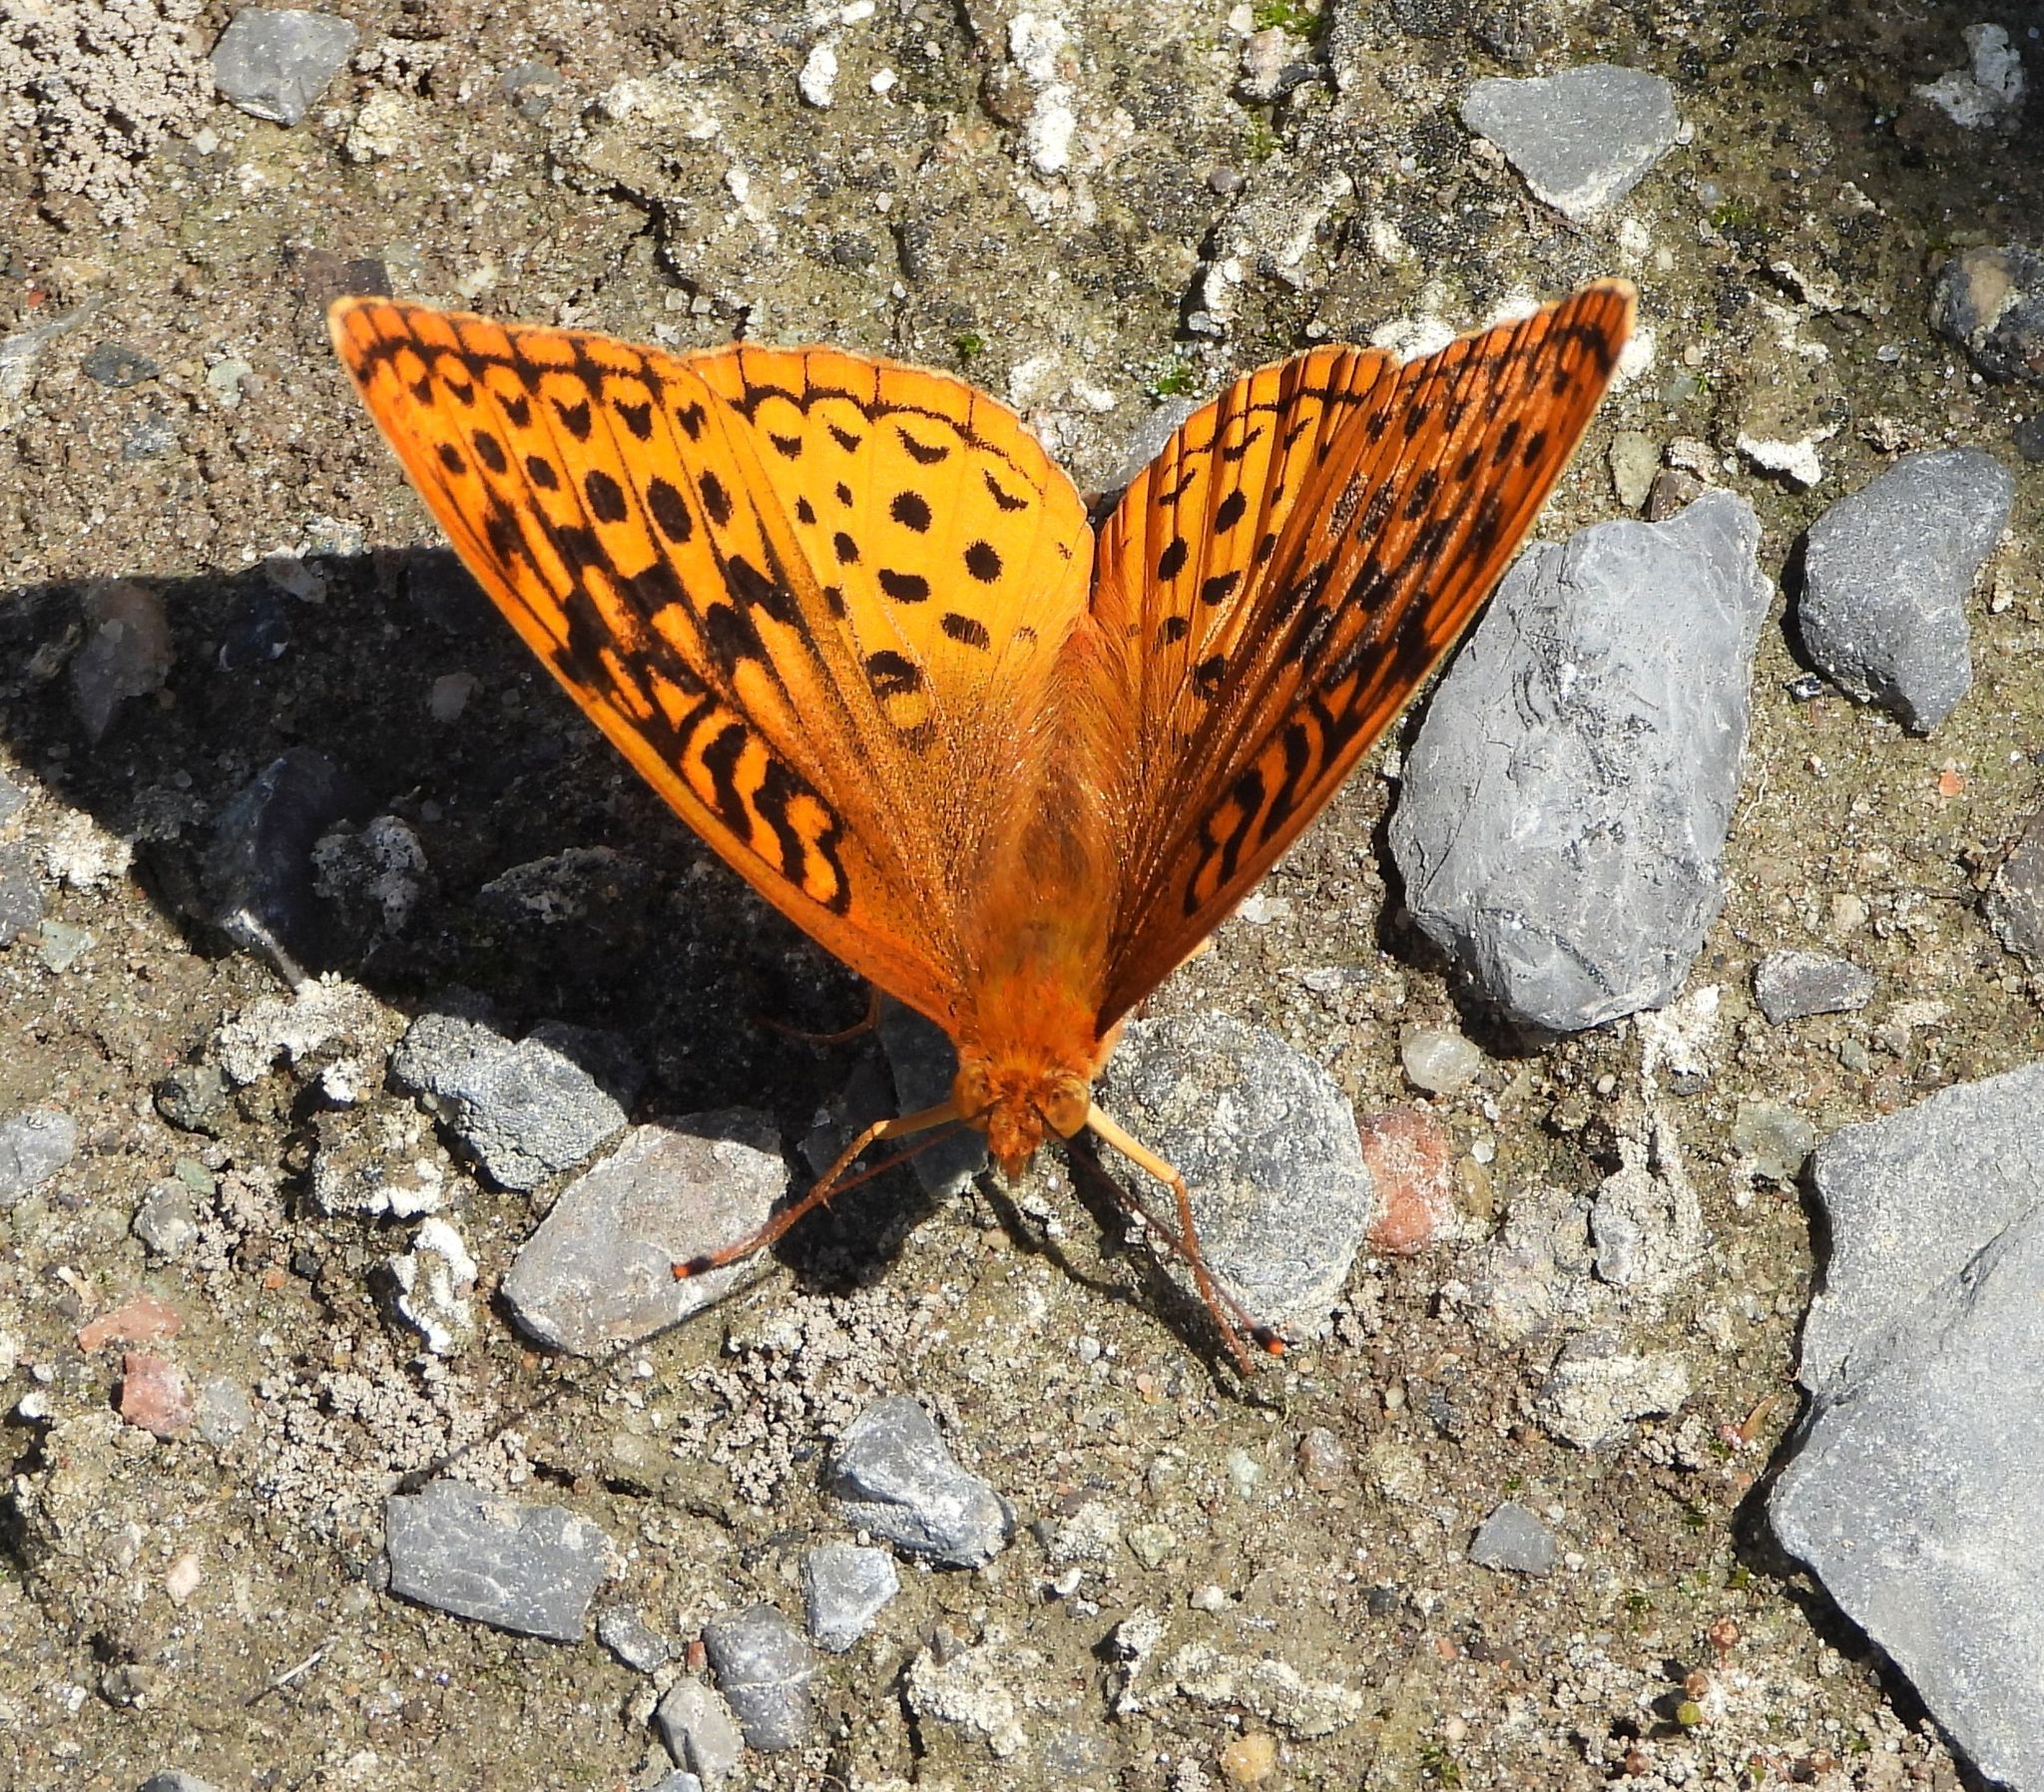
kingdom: Animalia
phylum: Arthropoda
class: Insecta
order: Lepidoptera
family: Nymphalidae
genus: Speyeria
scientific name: Speyeria cybele
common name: Great spangled fritillary
